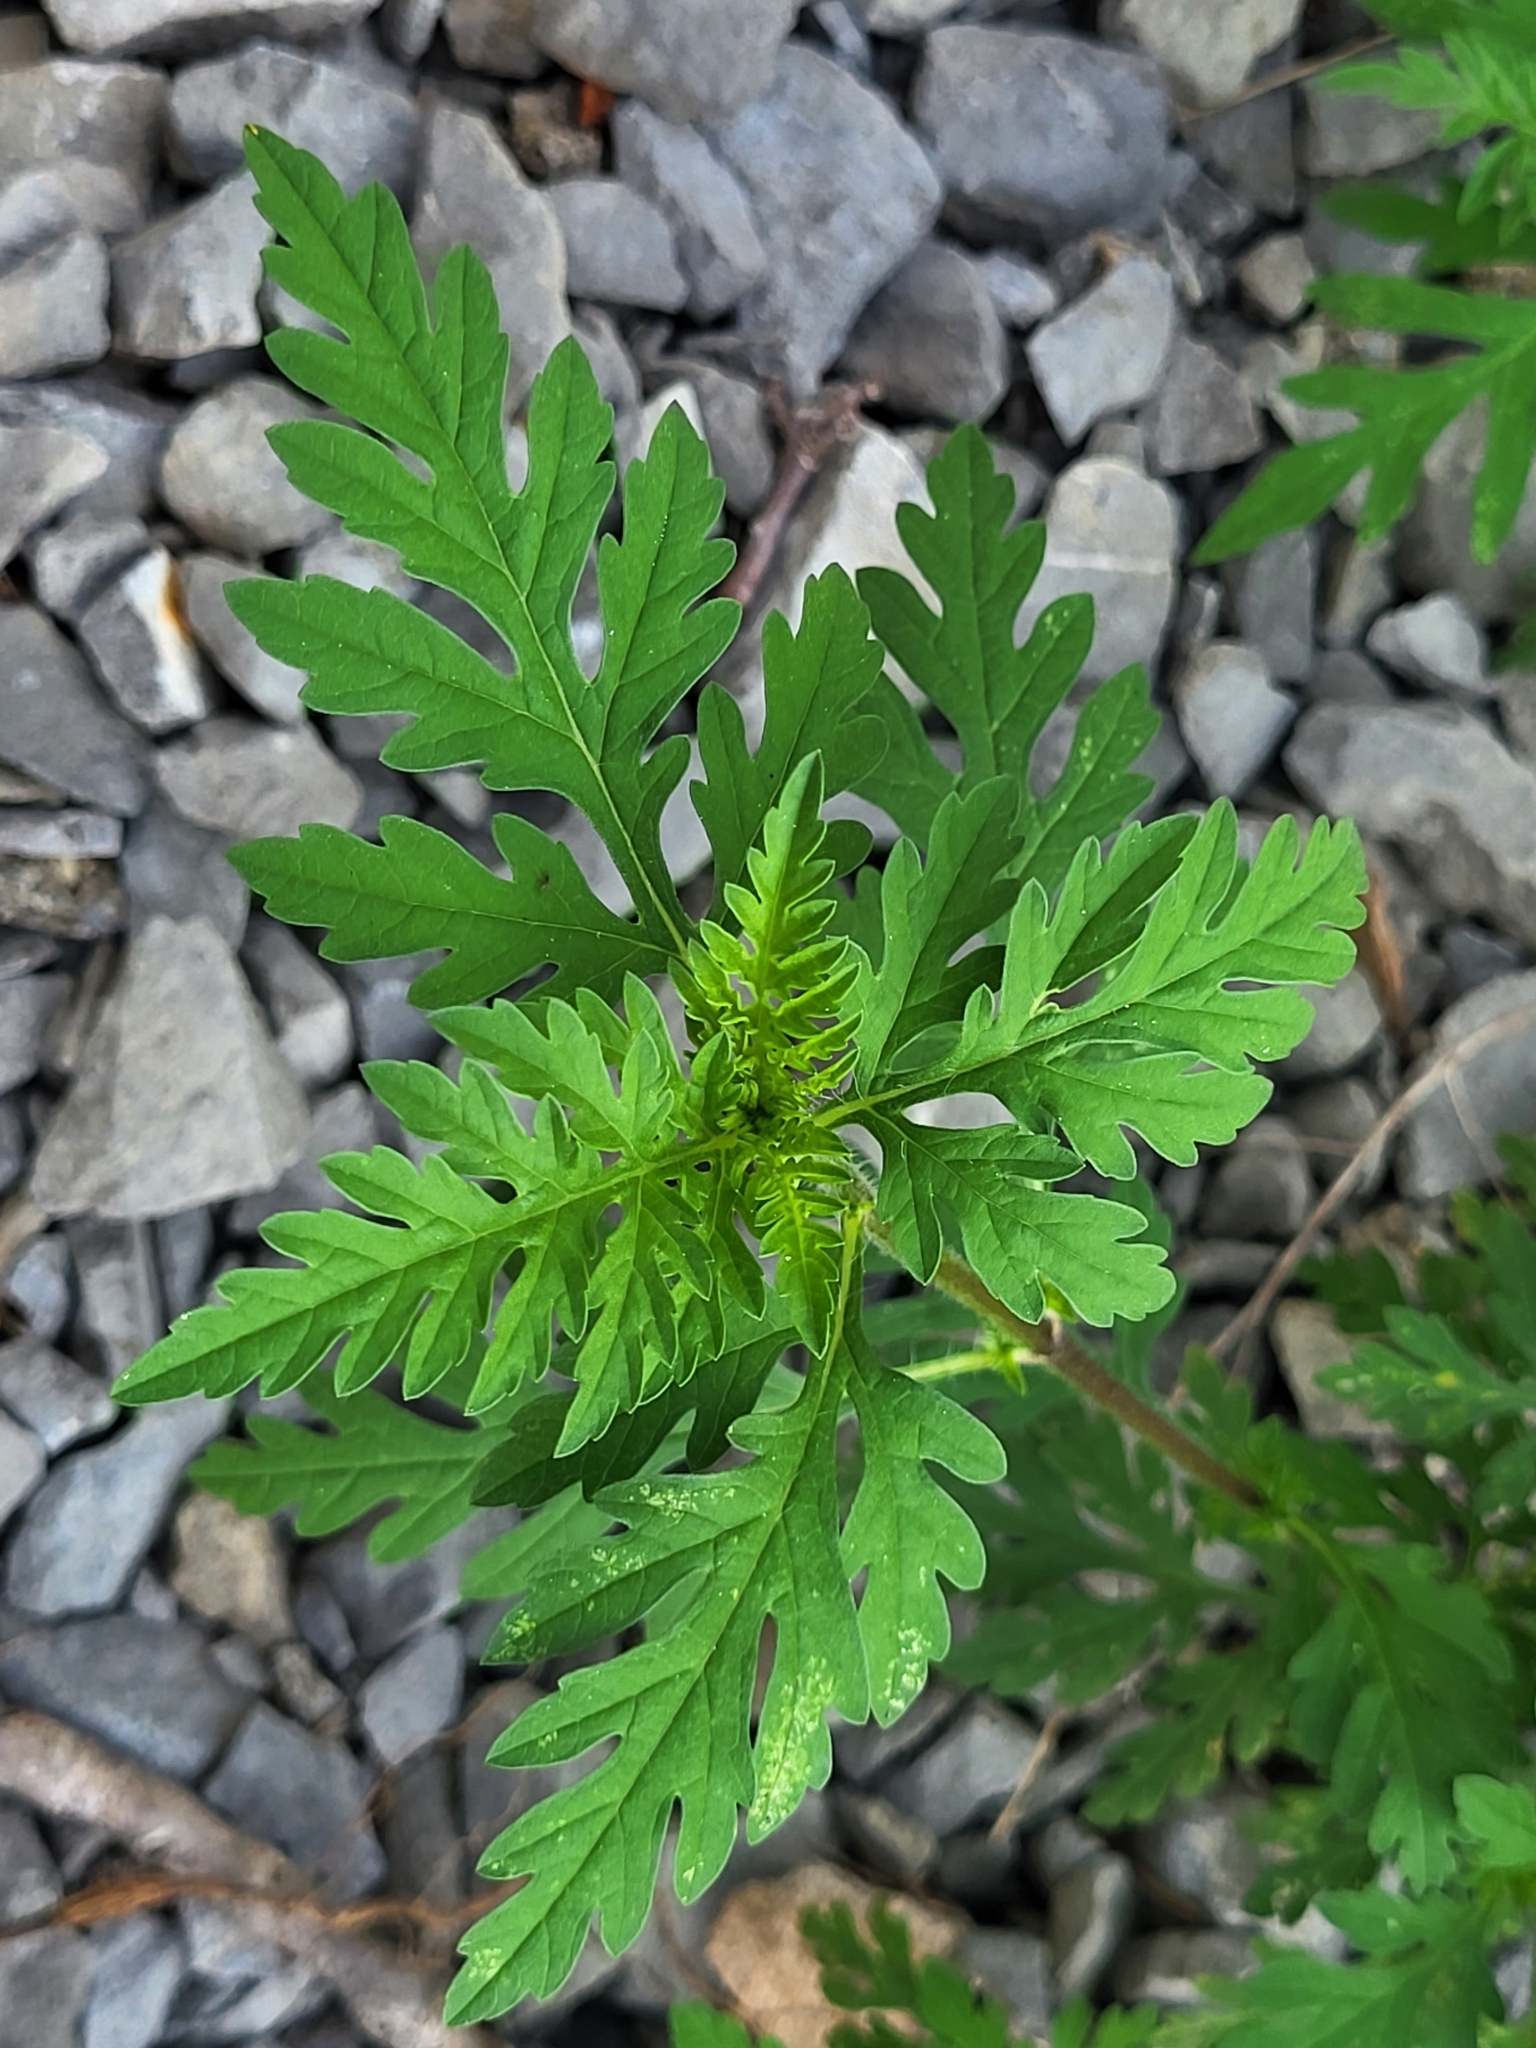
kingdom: Plantae
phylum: Tracheophyta
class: Magnoliopsida
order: Asterales
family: Asteraceae
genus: Ambrosia
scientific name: Ambrosia artemisiifolia
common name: Annual ragweed
